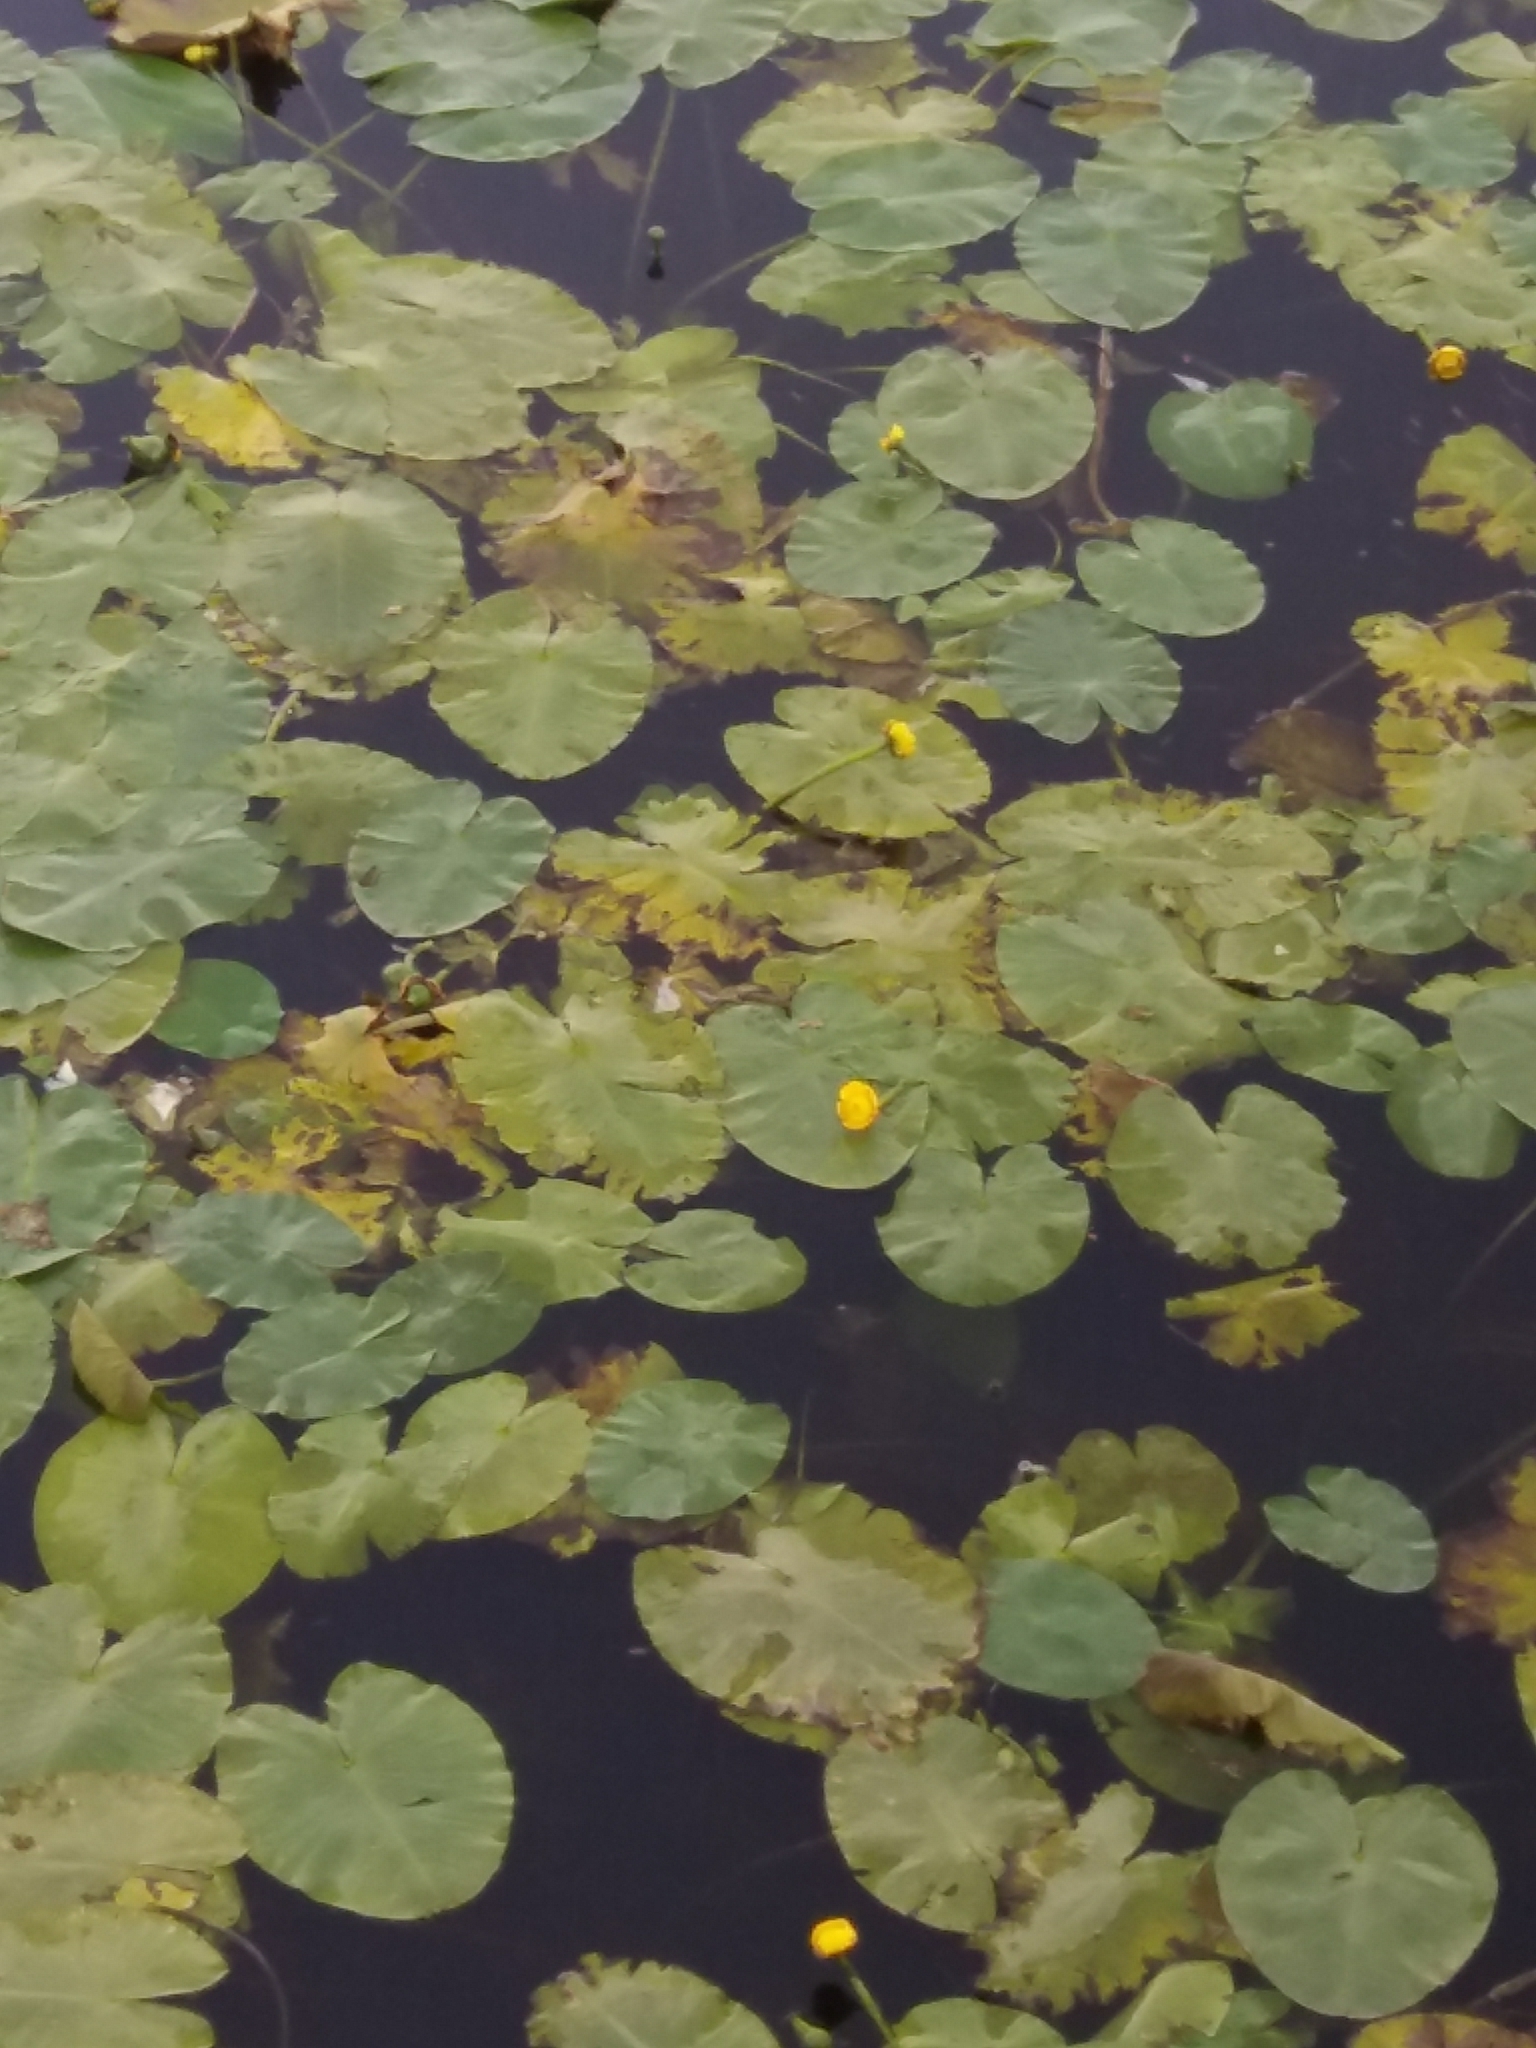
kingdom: Plantae
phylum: Tracheophyta
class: Magnoliopsida
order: Nymphaeales
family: Nymphaeaceae
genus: Nuphar
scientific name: Nuphar lutea
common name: Yellow water-lily
